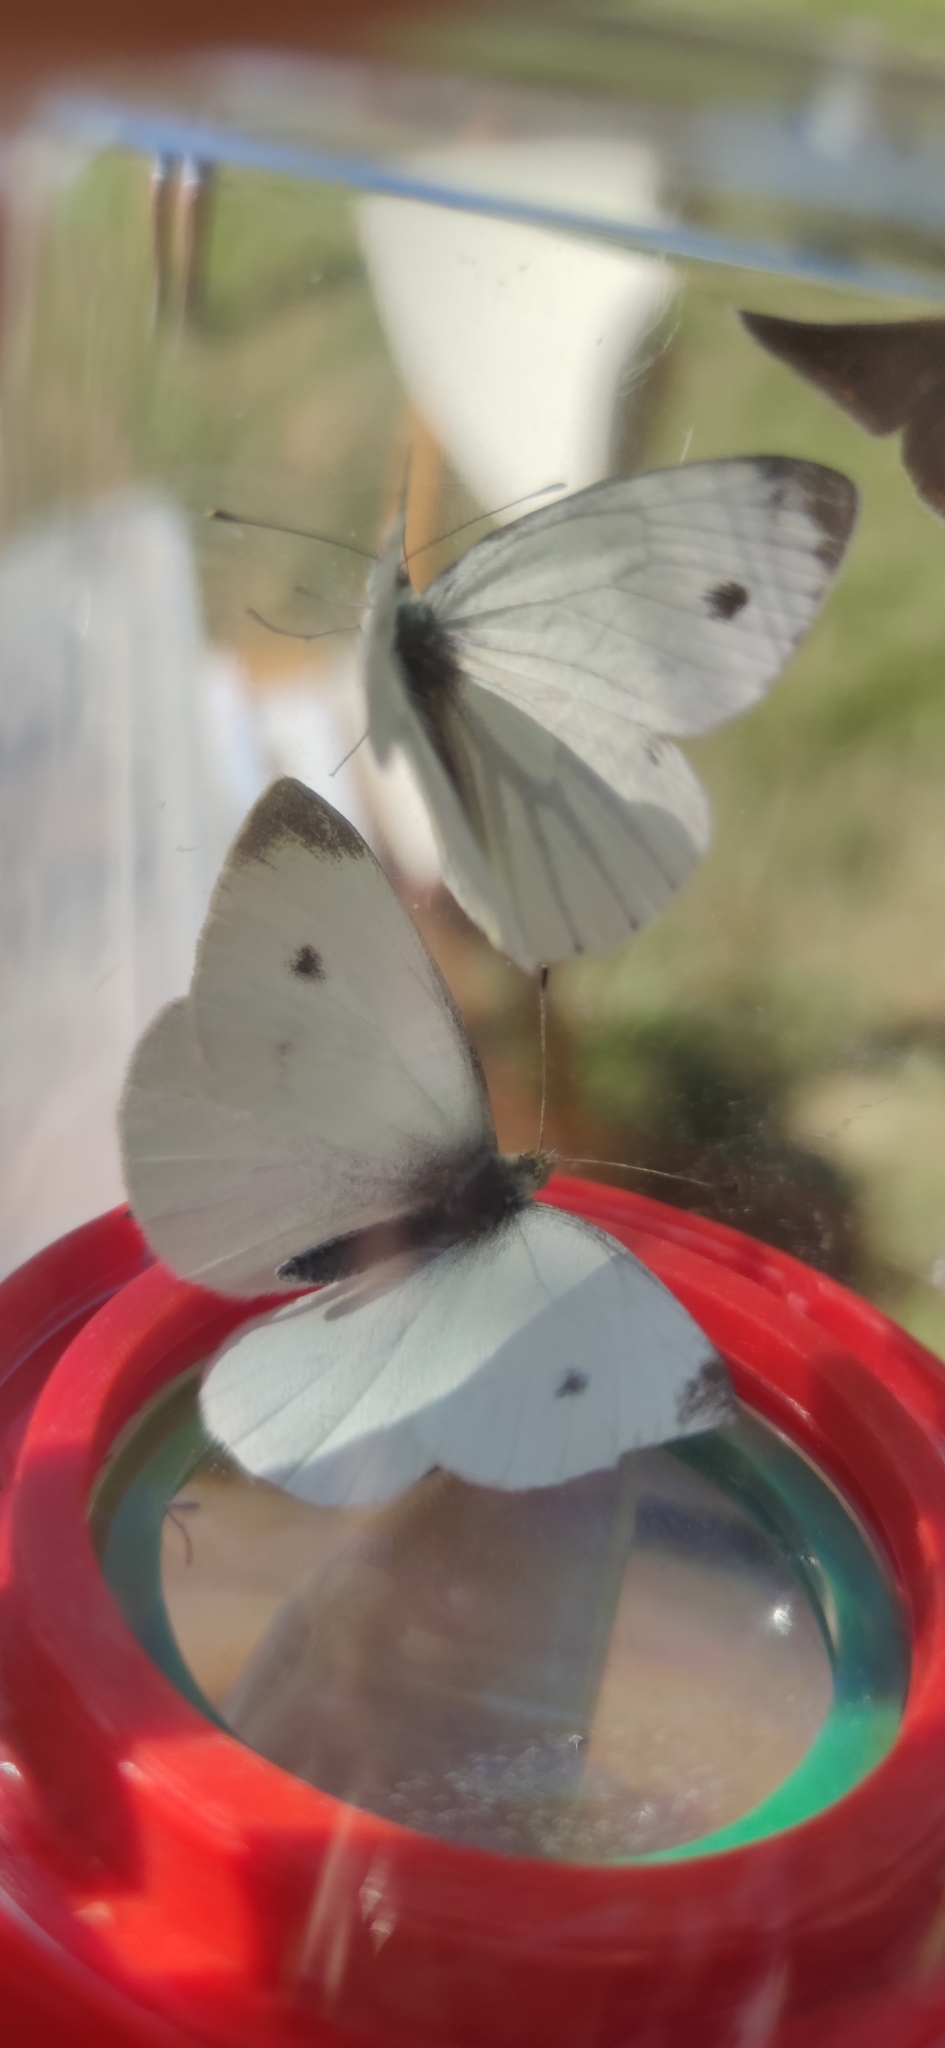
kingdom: Animalia
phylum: Arthropoda
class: Insecta
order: Lepidoptera
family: Pieridae
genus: Pieris
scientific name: Pieris rapae
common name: Small white
